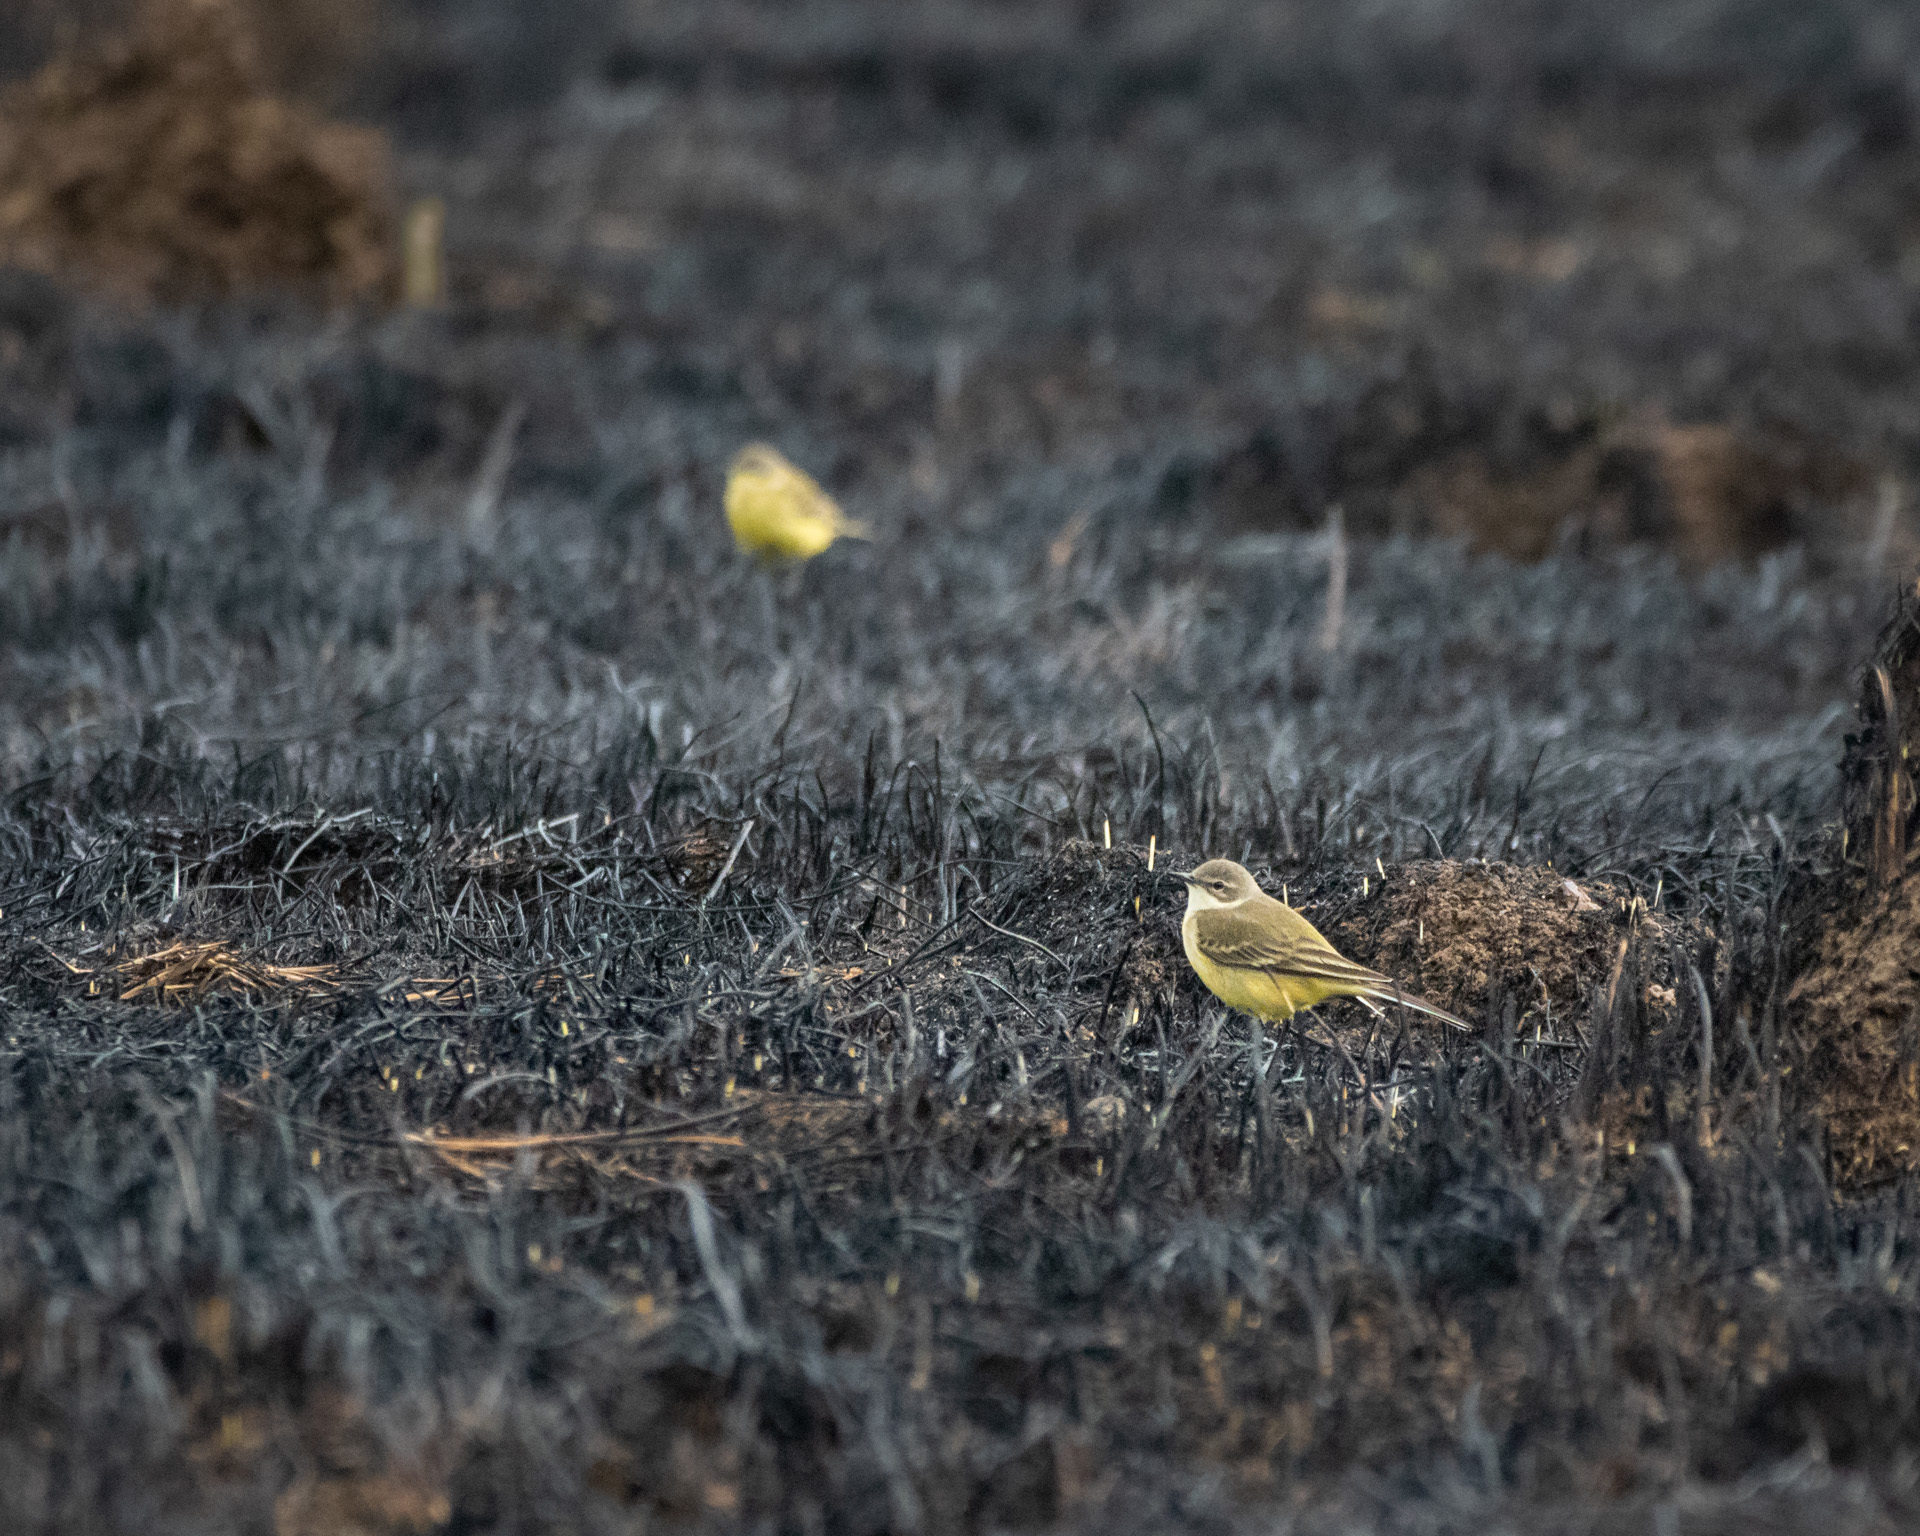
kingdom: Animalia
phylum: Chordata
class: Aves
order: Passeriformes
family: Motacillidae
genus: Motacilla
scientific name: Motacilla flava
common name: Western yellow wagtail
